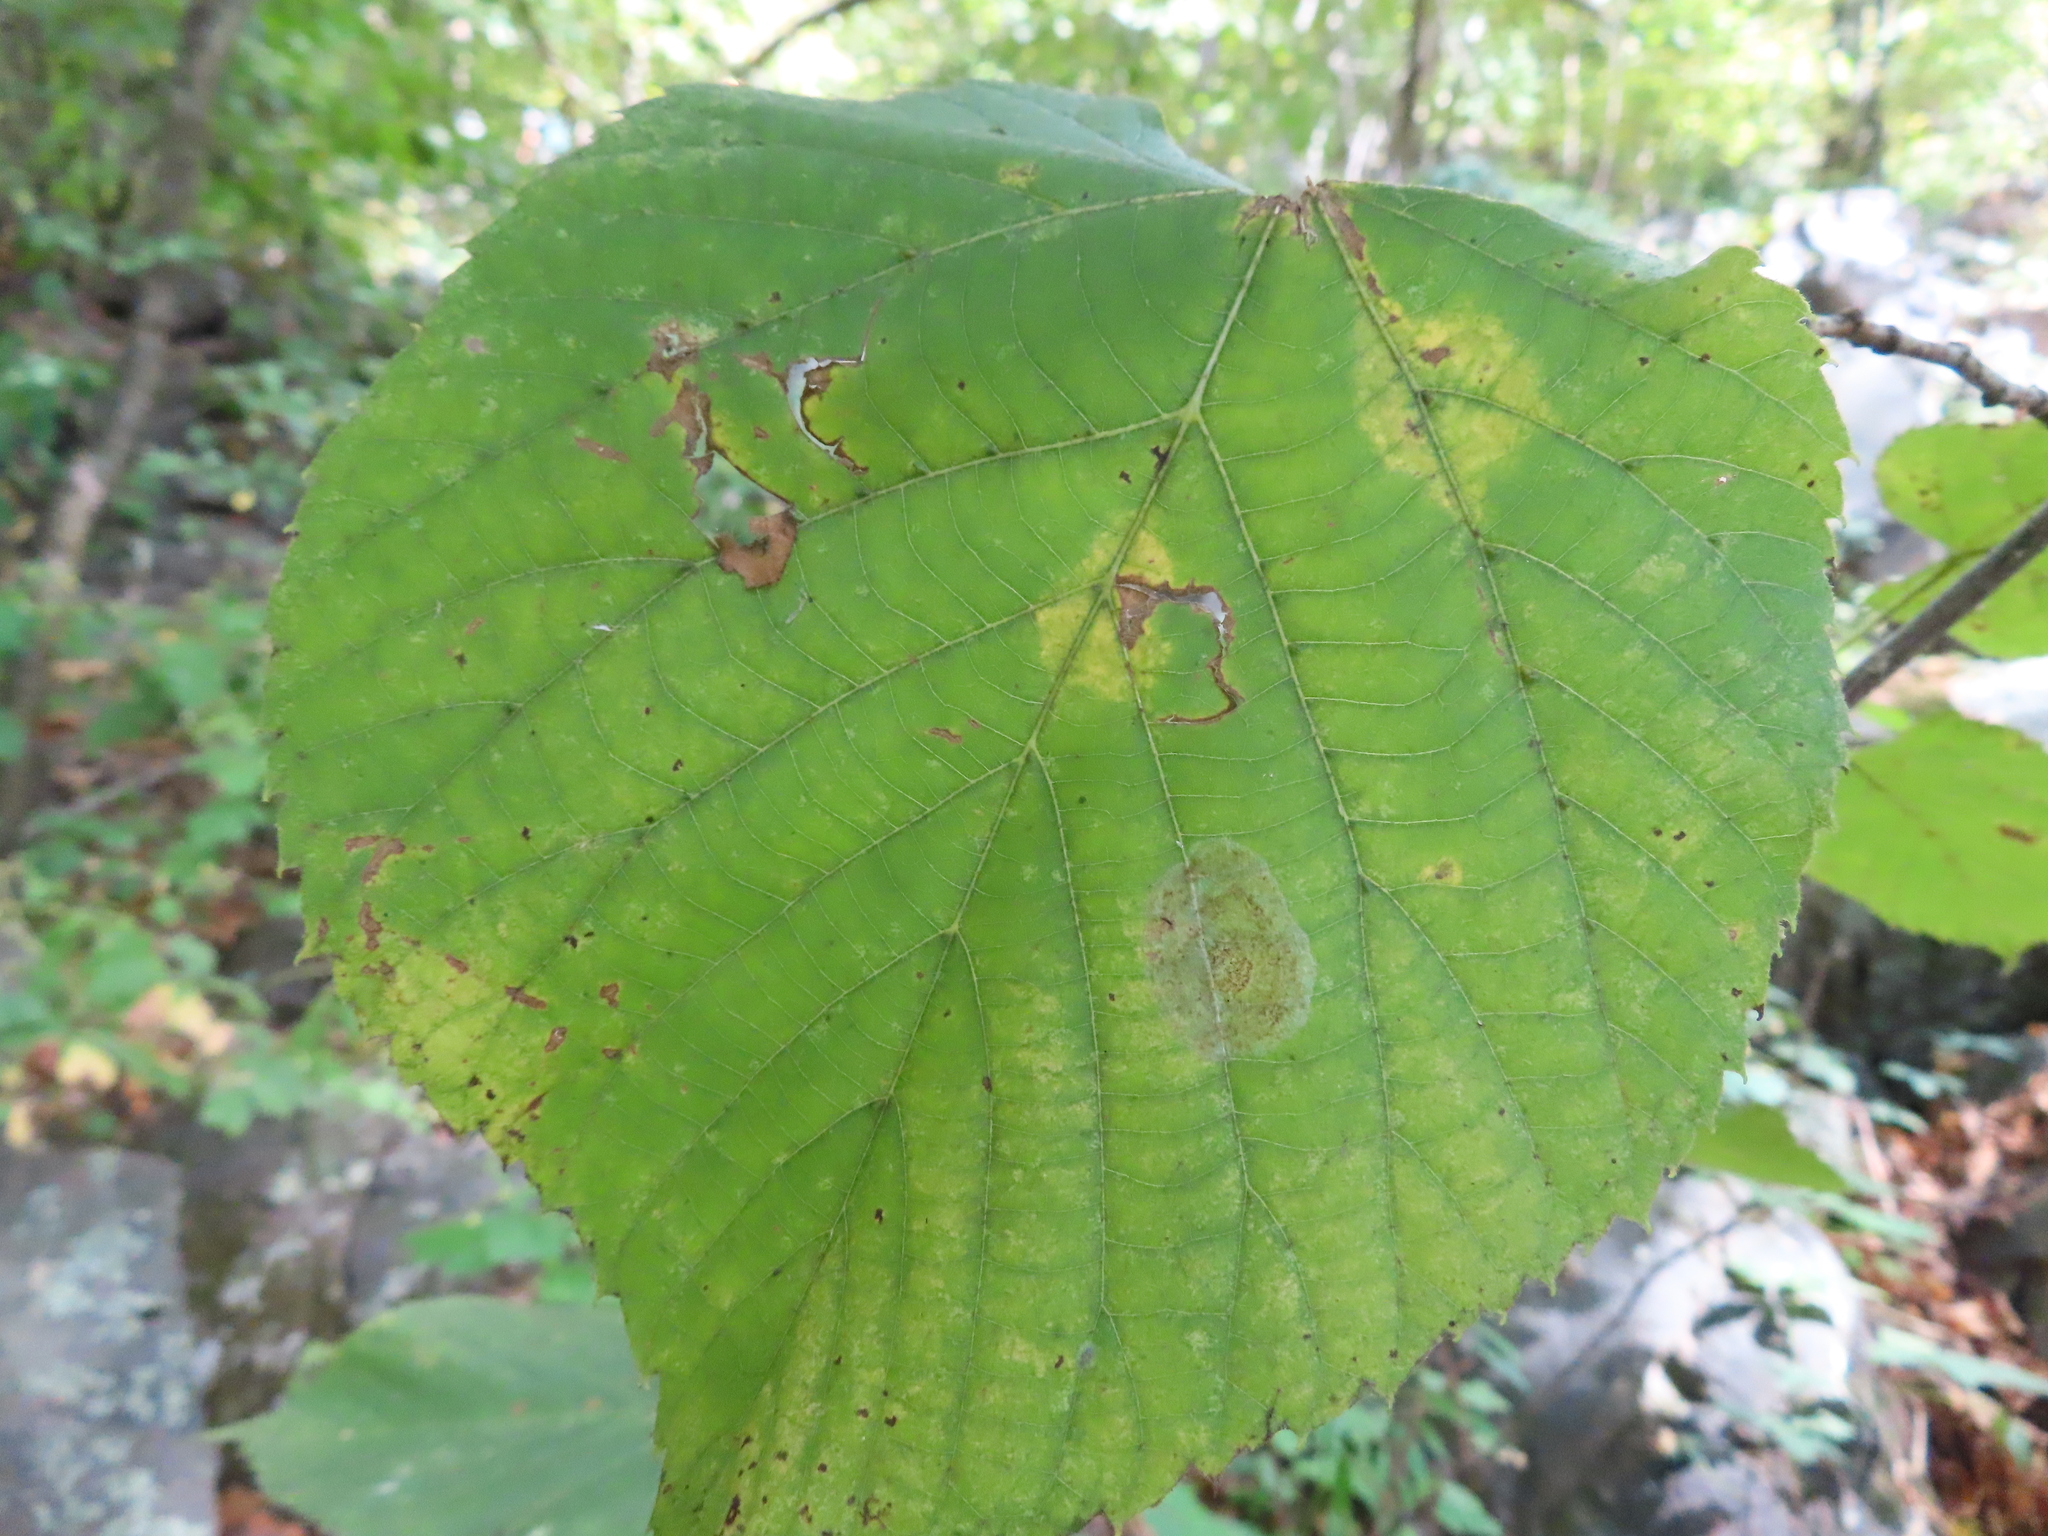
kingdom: Plantae
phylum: Tracheophyta
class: Magnoliopsida
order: Malvales
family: Malvaceae
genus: Tilia
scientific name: Tilia americana
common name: Basswood
